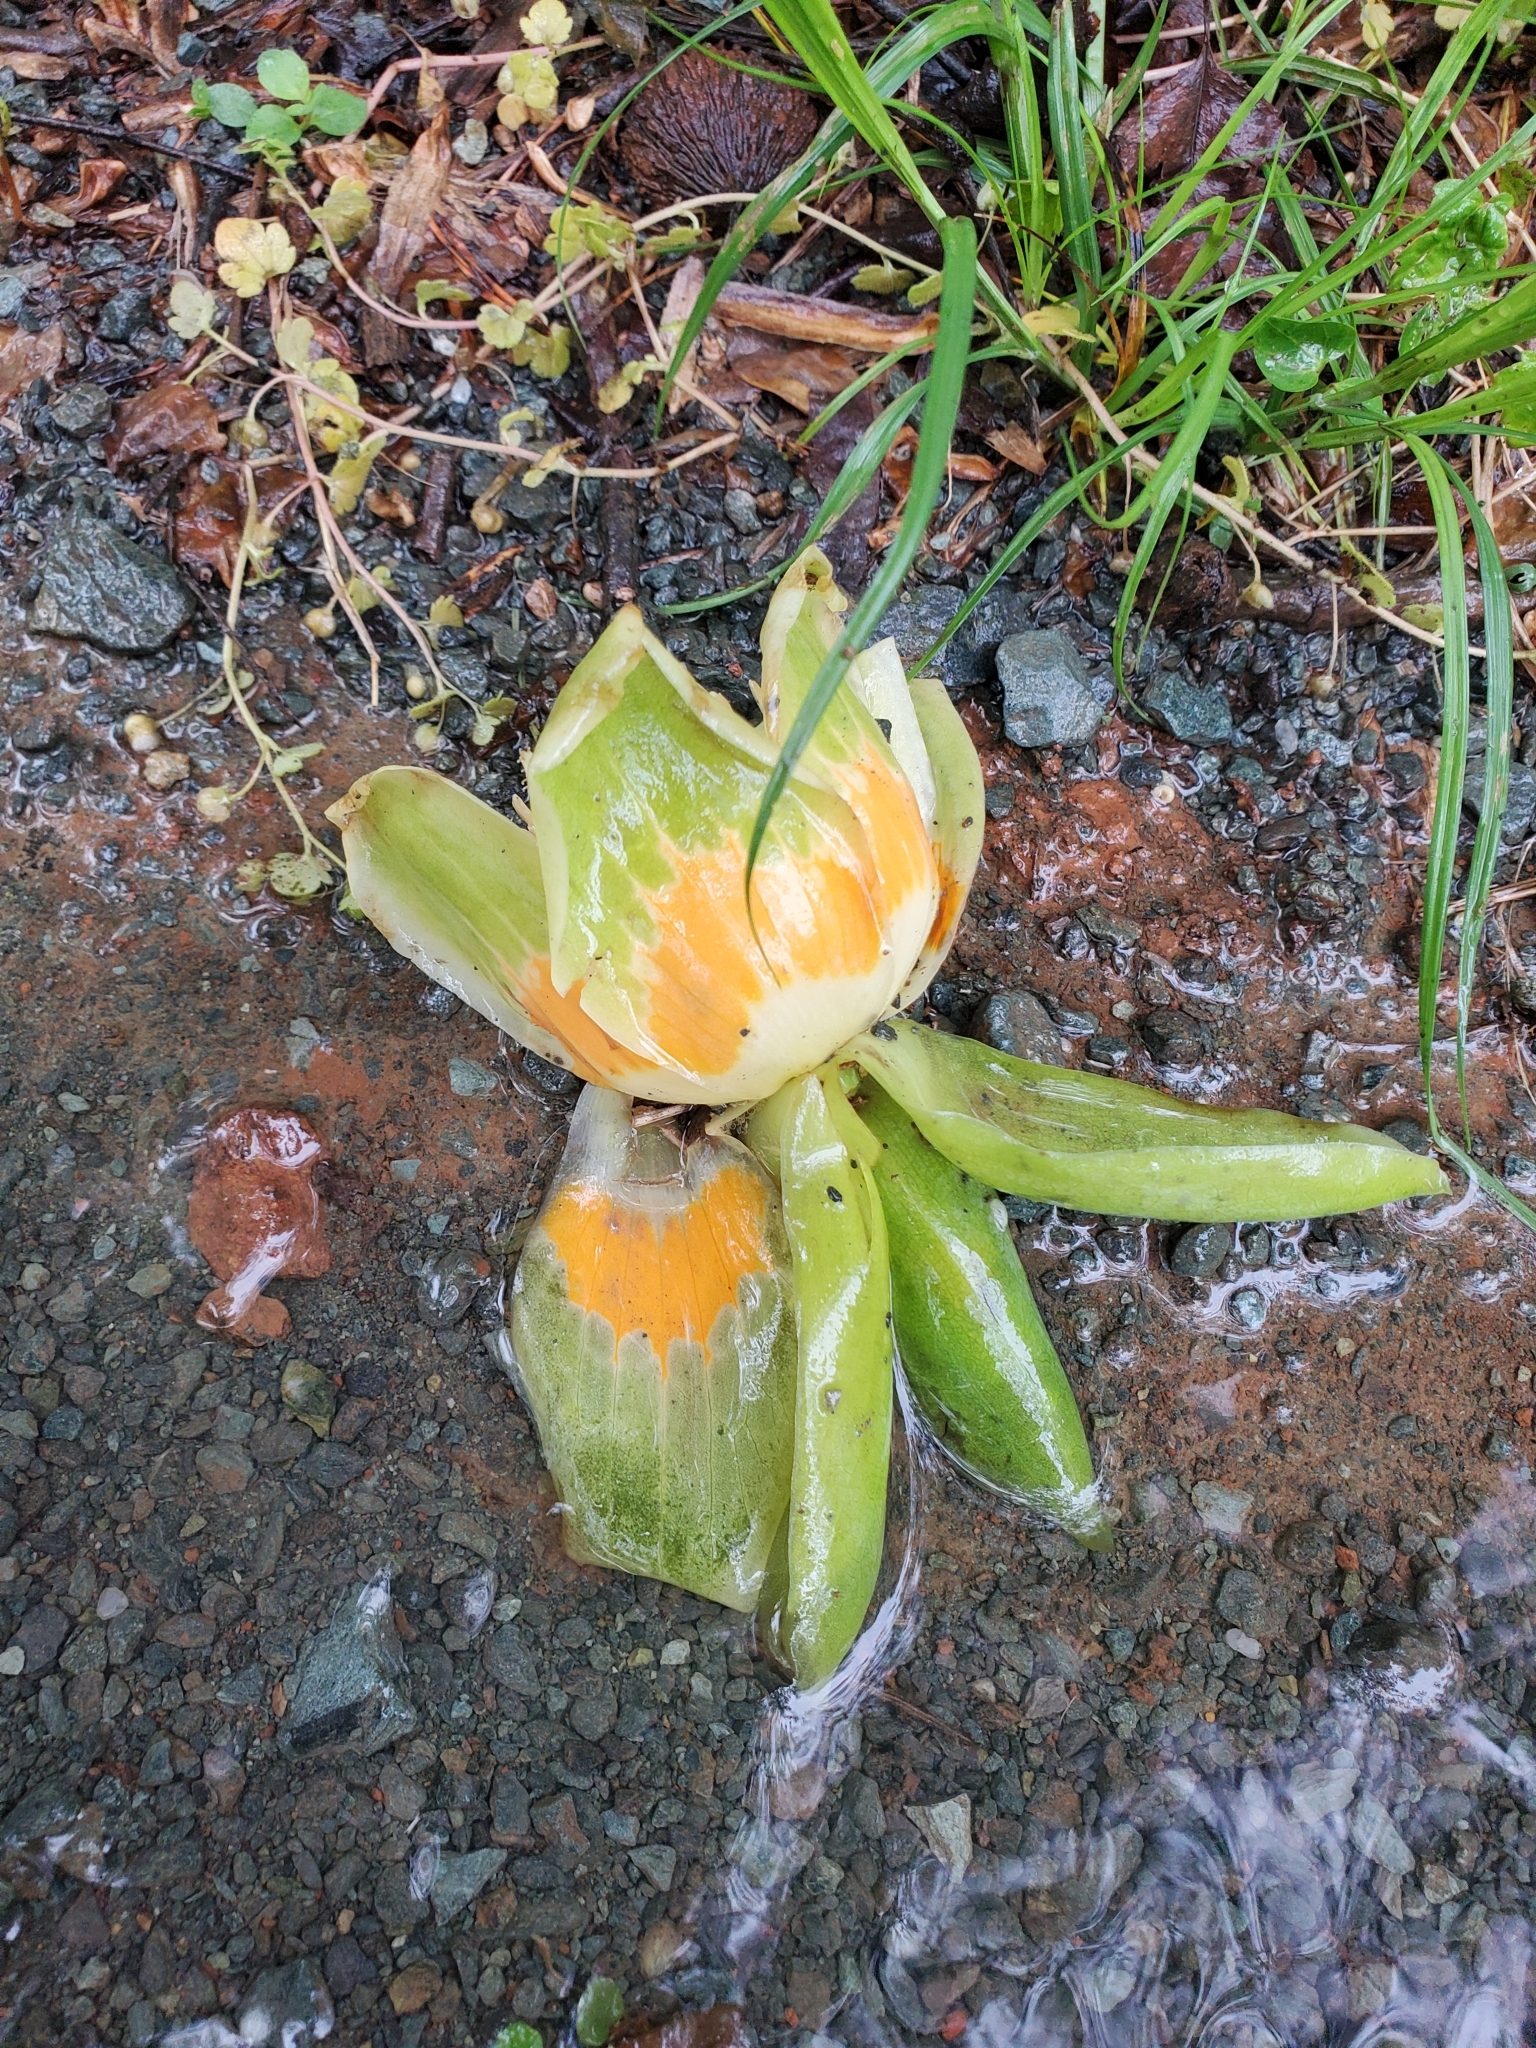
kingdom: Plantae
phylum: Tracheophyta
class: Magnoliopsida
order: Magnoliales
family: Magnoliaceae
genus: Liriodendron
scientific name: Liriodendron tulipifera
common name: Tulip tree
